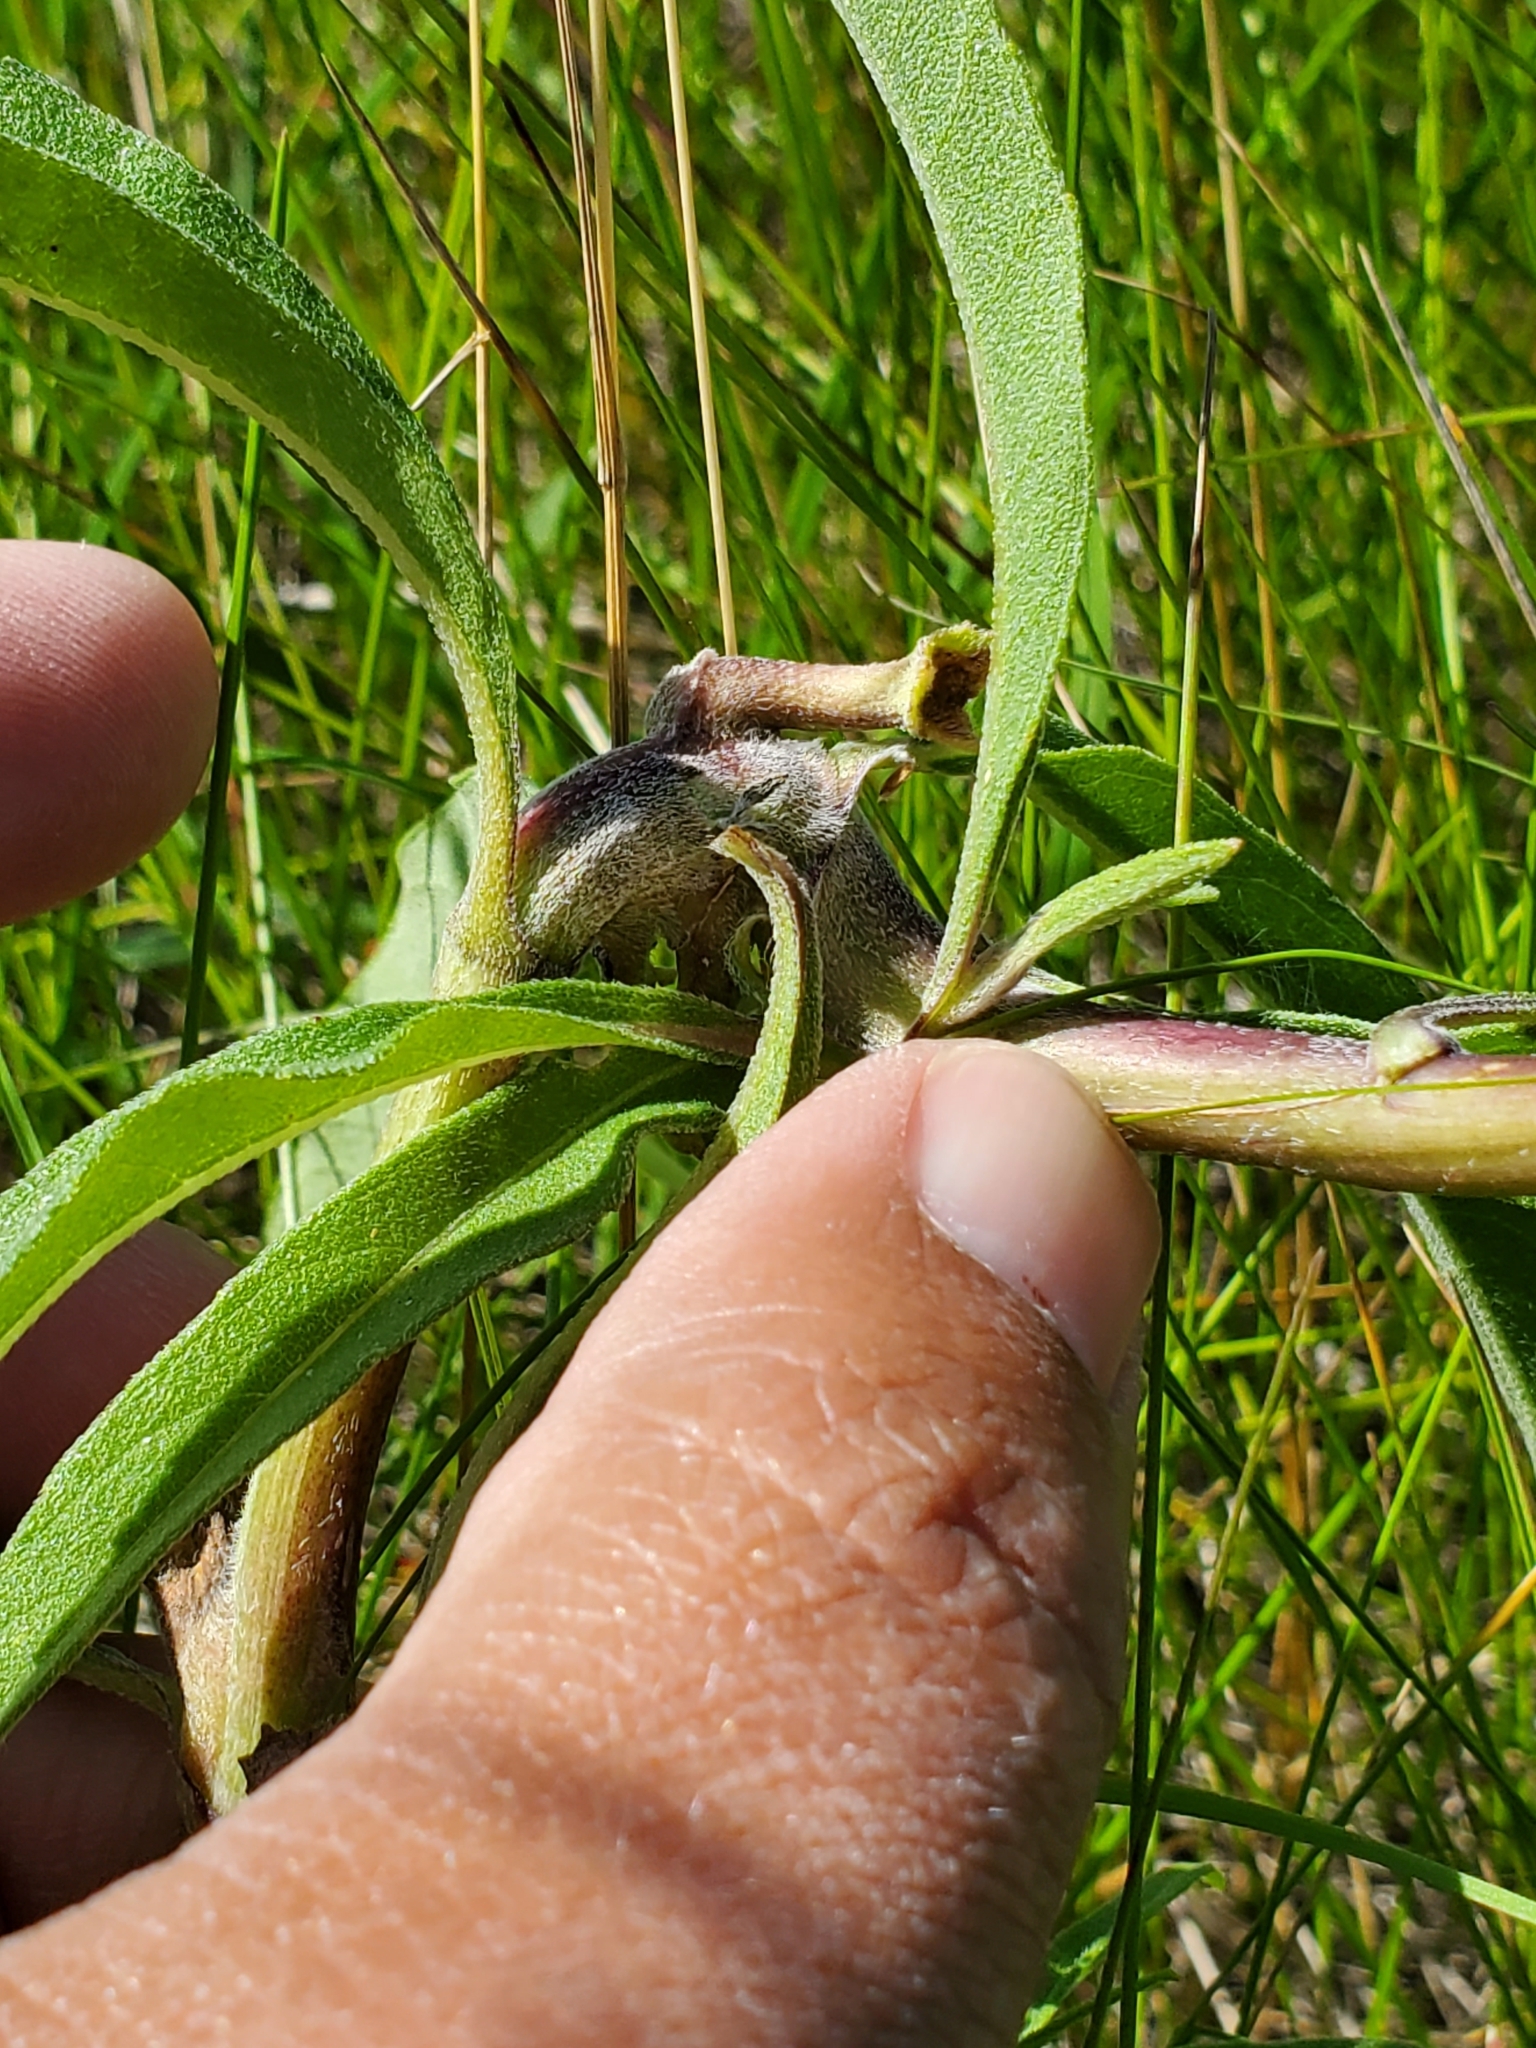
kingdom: Animalia
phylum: Arthropoda
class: Insecta
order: Diptera
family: Cecidomyiidae
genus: Olpodiplosis
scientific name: Olpodiplosis helianthi
